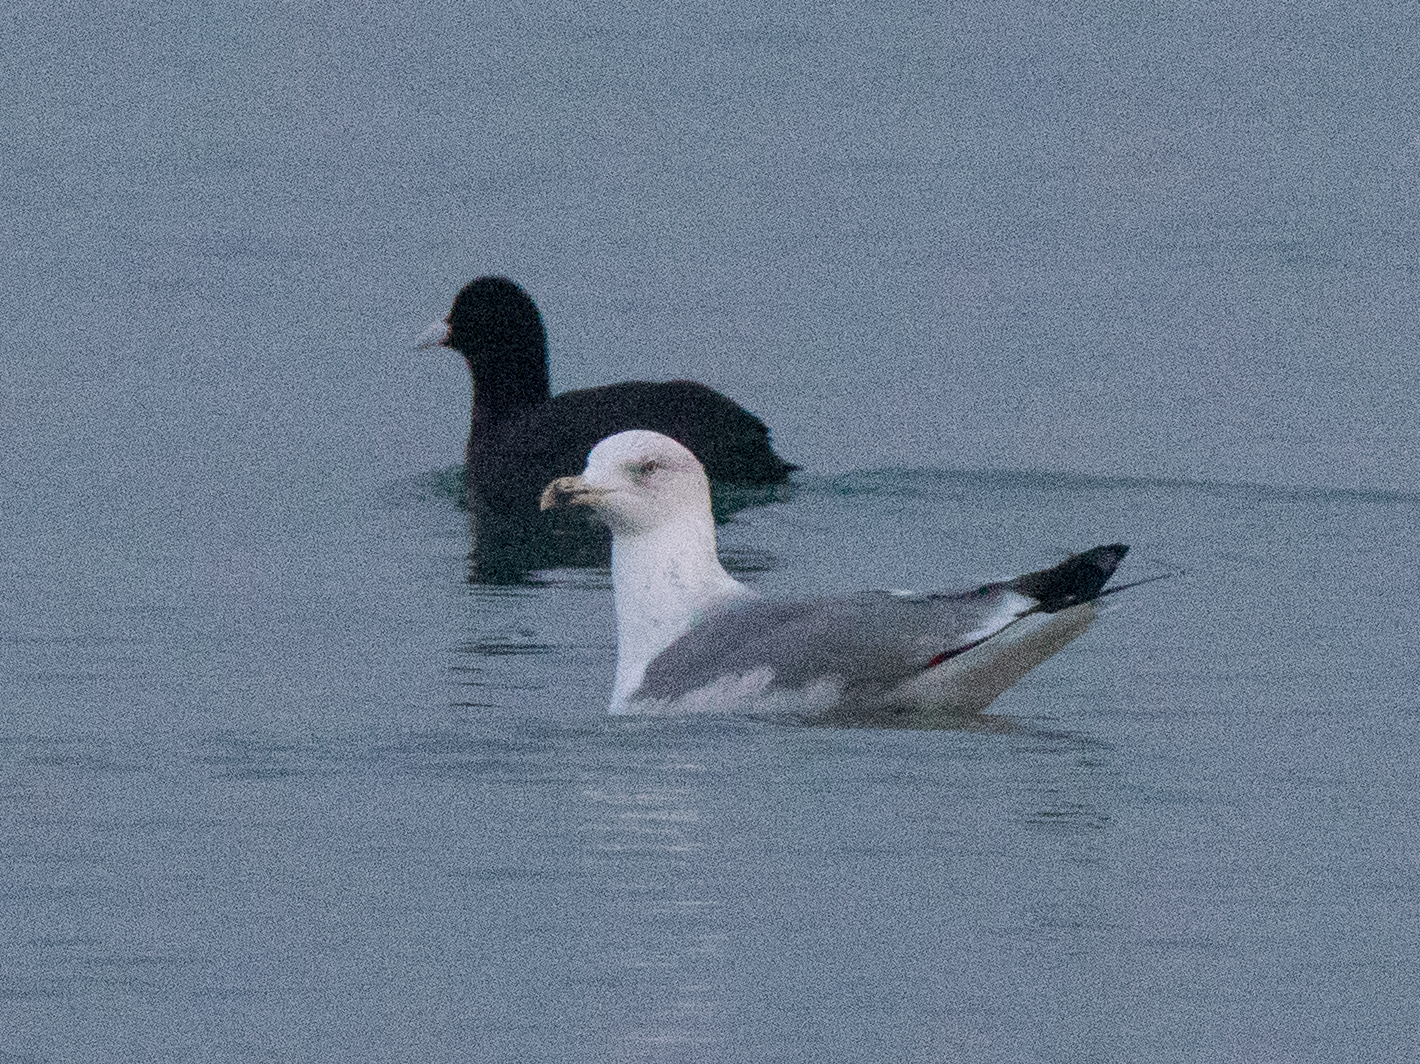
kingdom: Animalia
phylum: Chordata
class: Aves
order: Charadriiformes
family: Laridae
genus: Larus
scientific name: Larus michahellis
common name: Yellow-legged gull
